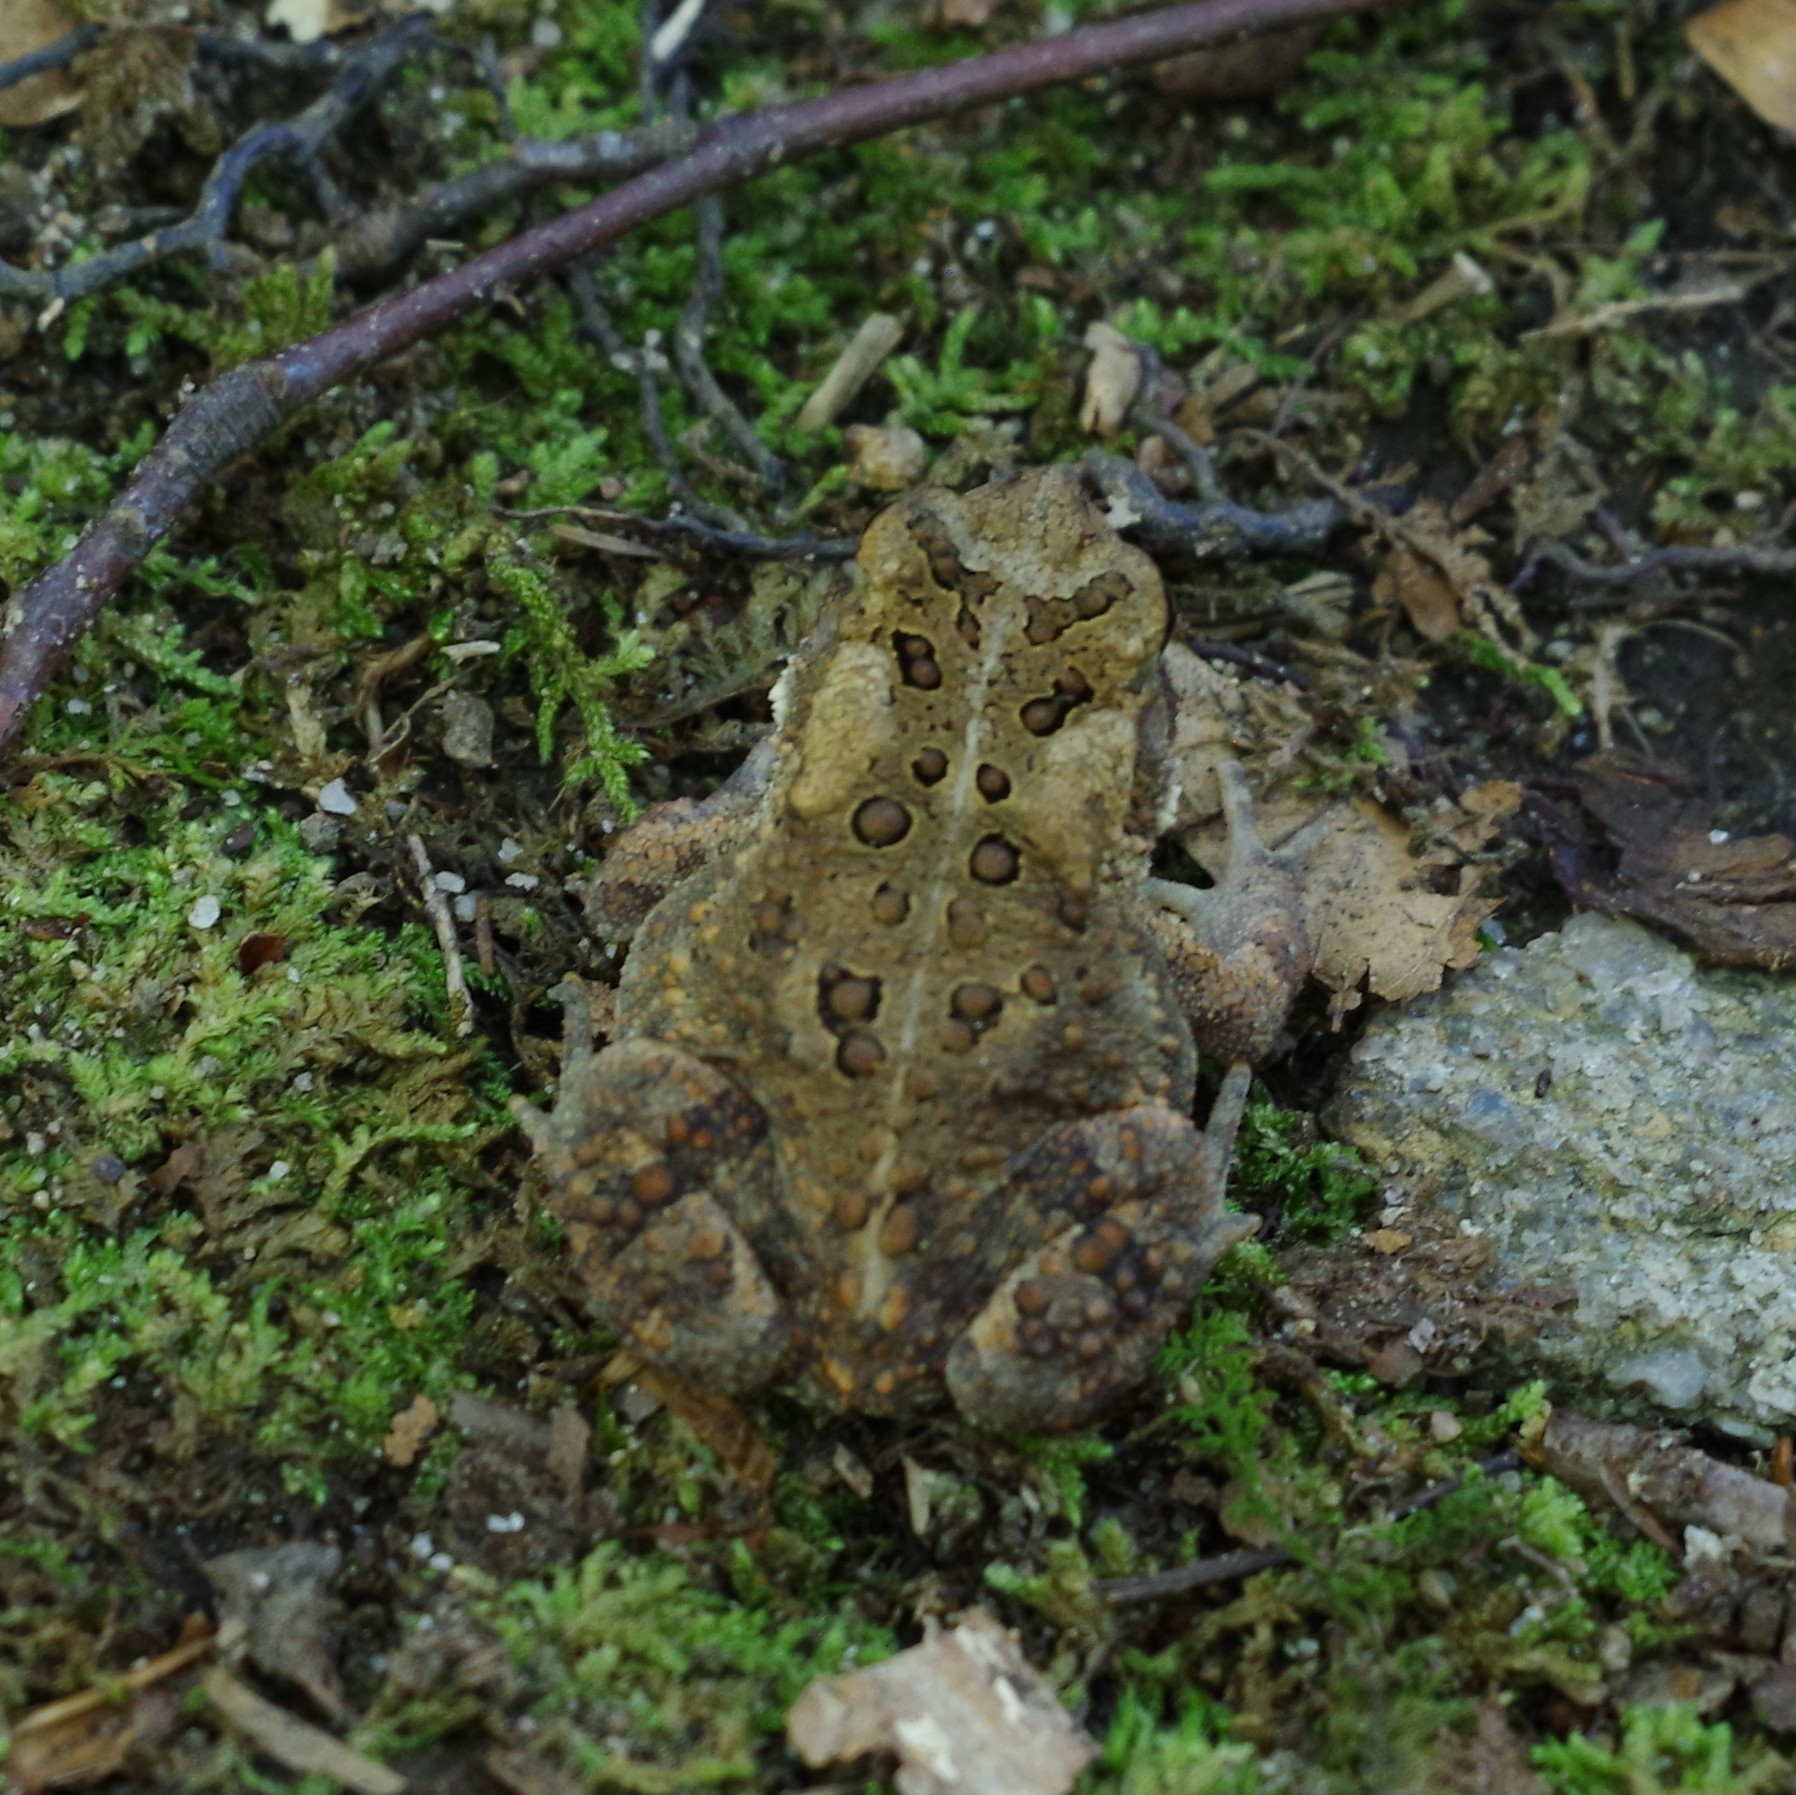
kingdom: Animalia
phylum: Chordata
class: Amphibia
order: Anura
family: Bufonidae
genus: Anaxyrus
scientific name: Anaxyrus americanus
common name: American toad
